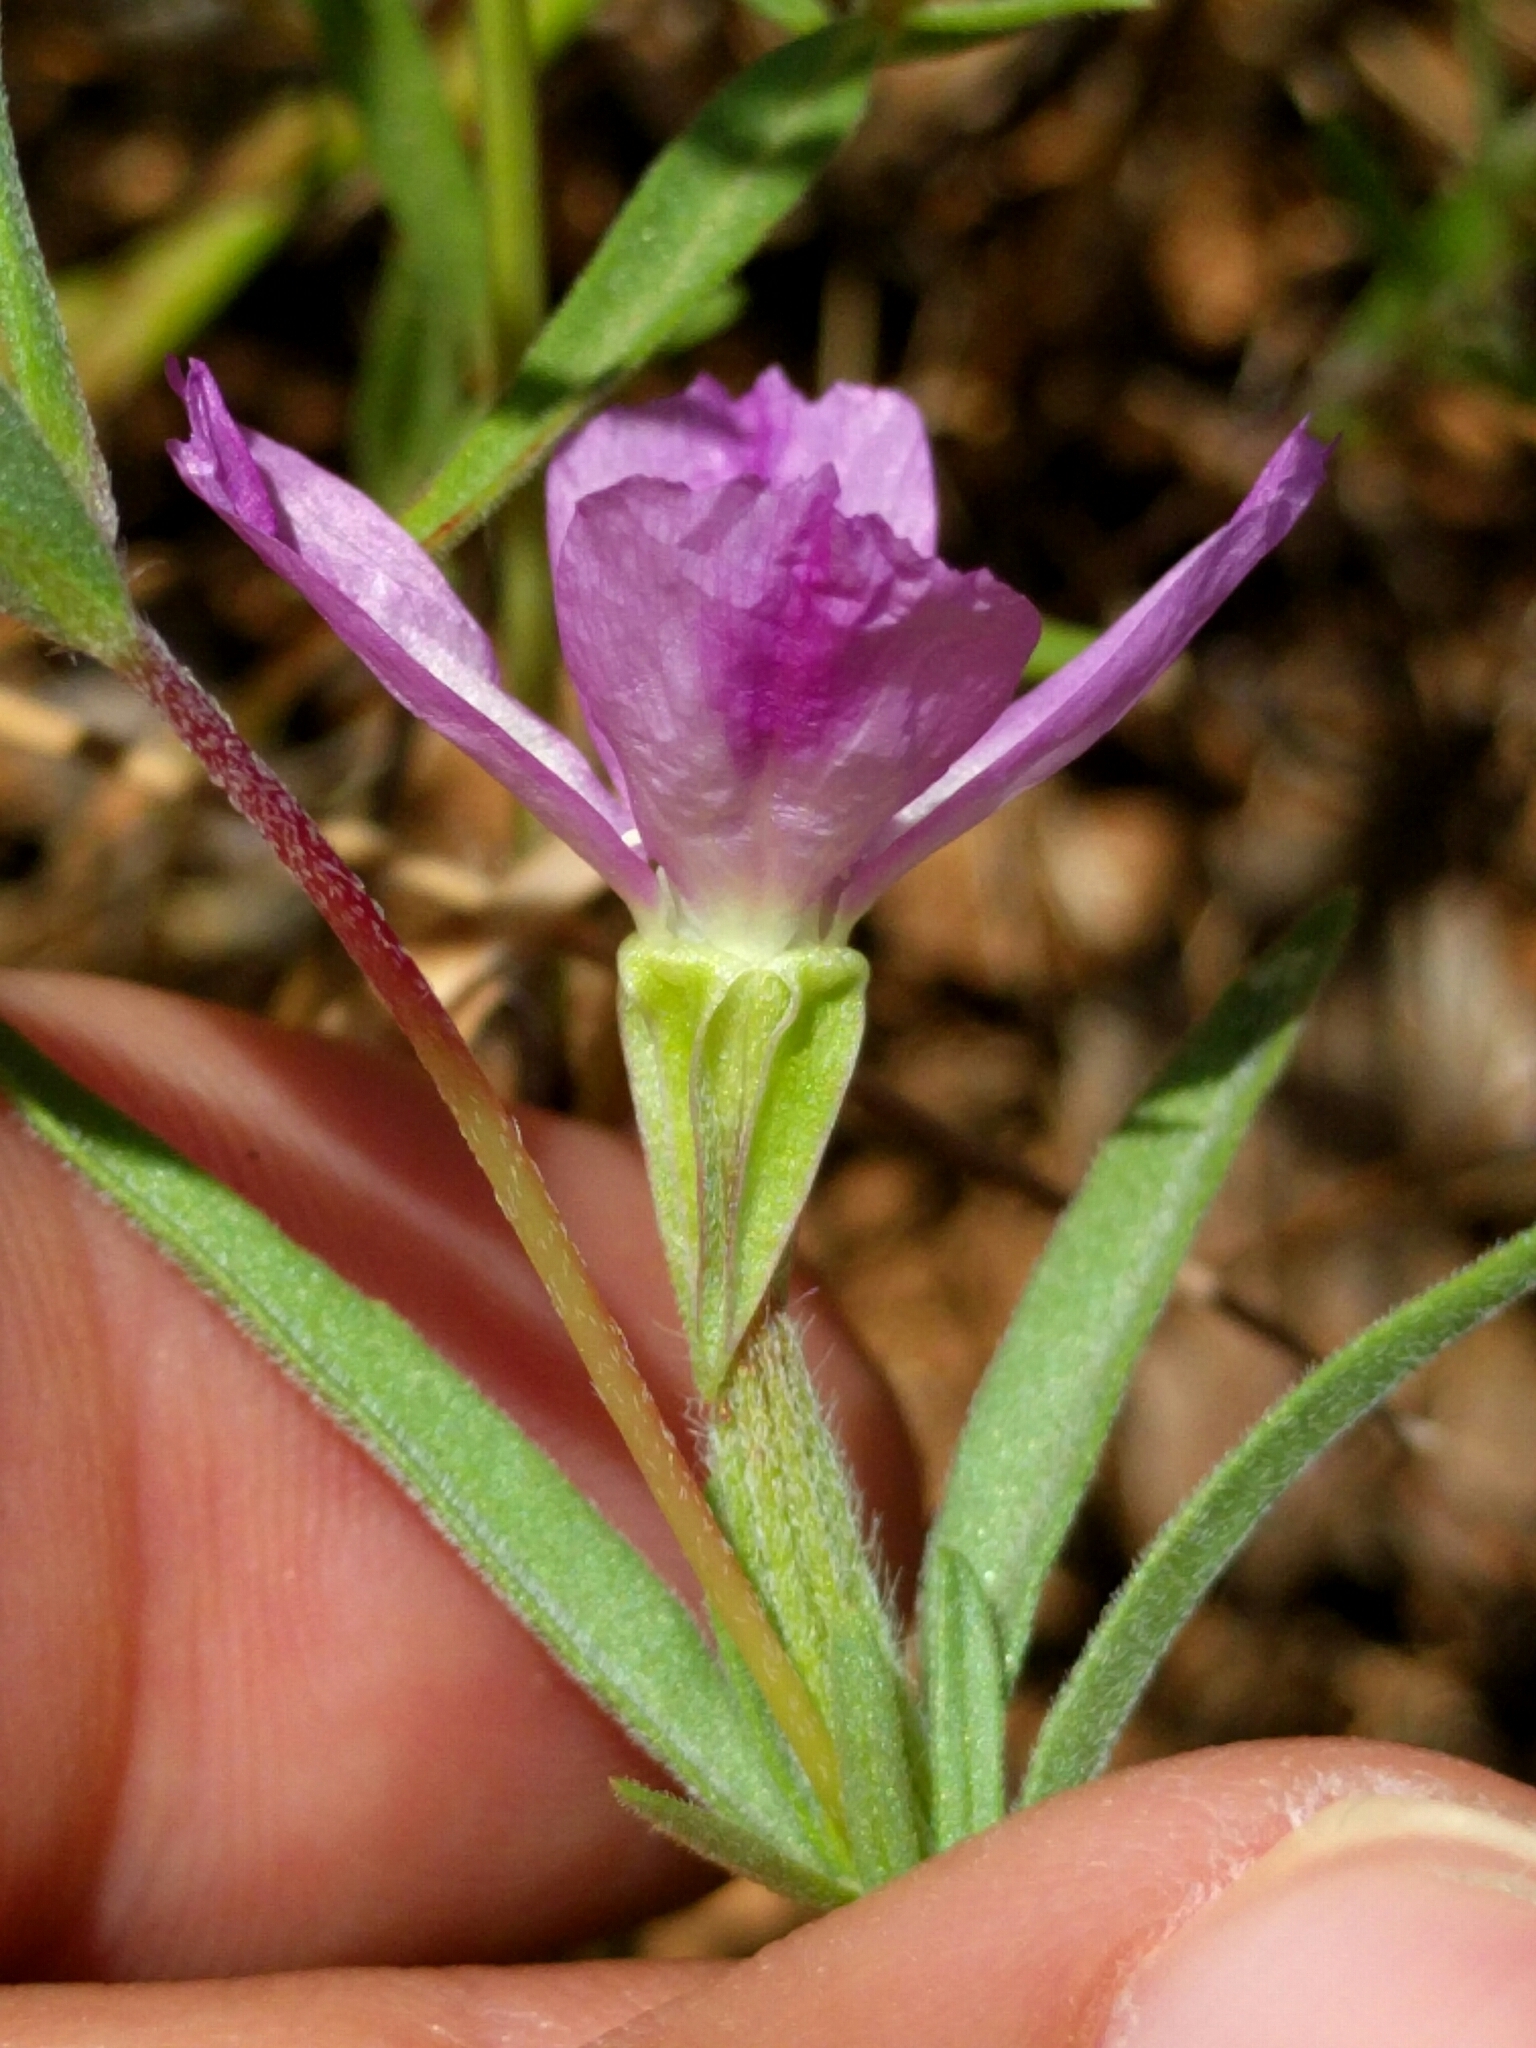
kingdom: Plantae
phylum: Tracheophyta
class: Magnoliopsida
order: Myrtales
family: Onagraceae
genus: Clarkia
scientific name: Clarkia purpurea
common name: Purple clarkia
